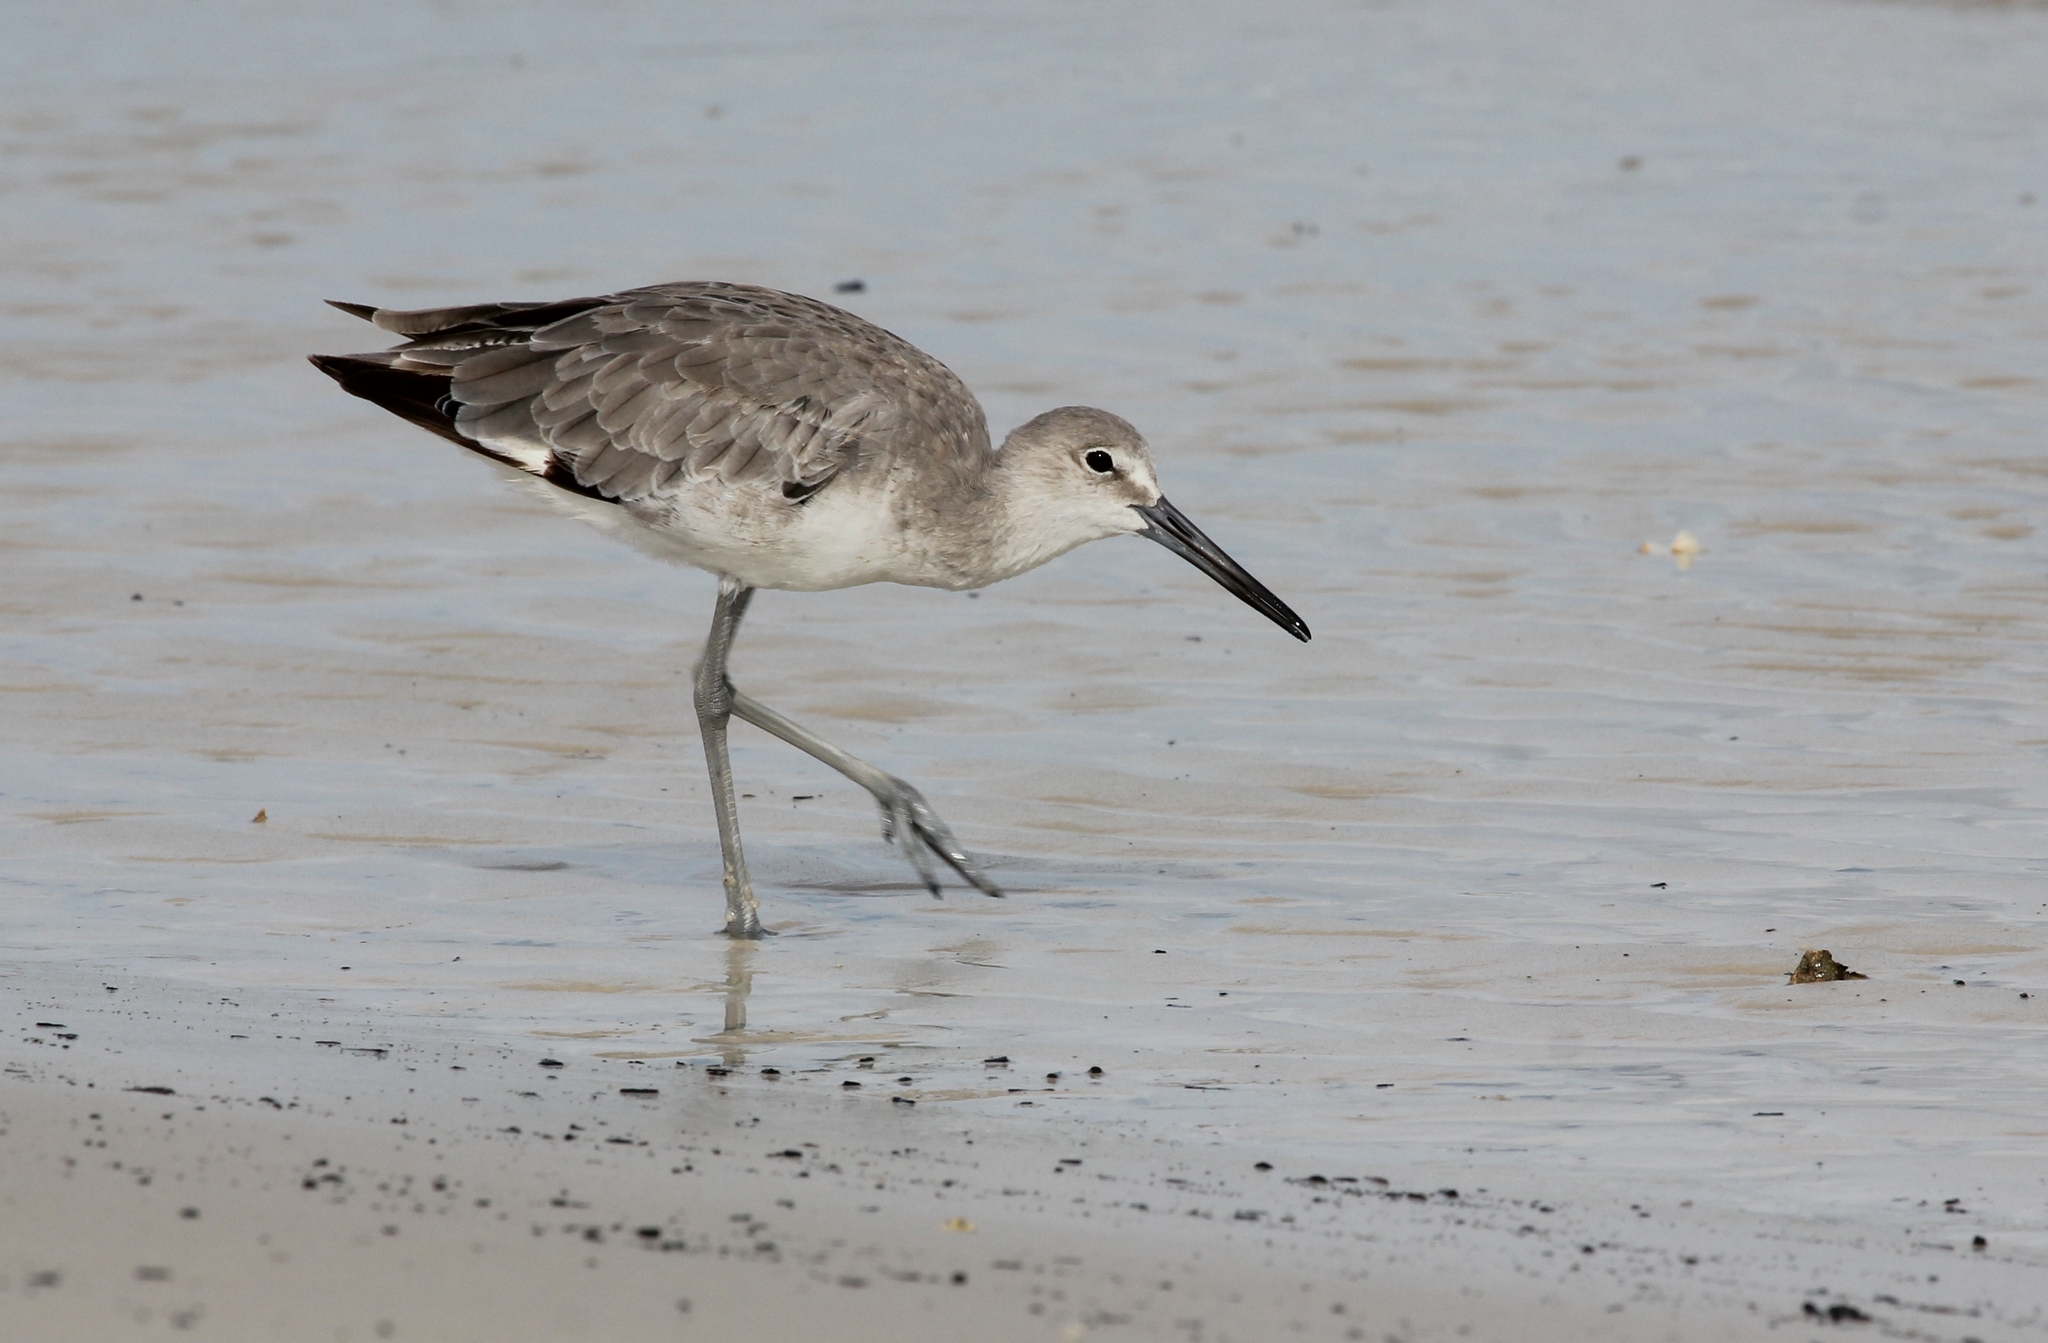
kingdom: Animalia
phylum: Chordata
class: Aves
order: Charadriiformes
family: Scolopacidae
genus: Tringa
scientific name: Tringa semipalmata
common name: Willet
